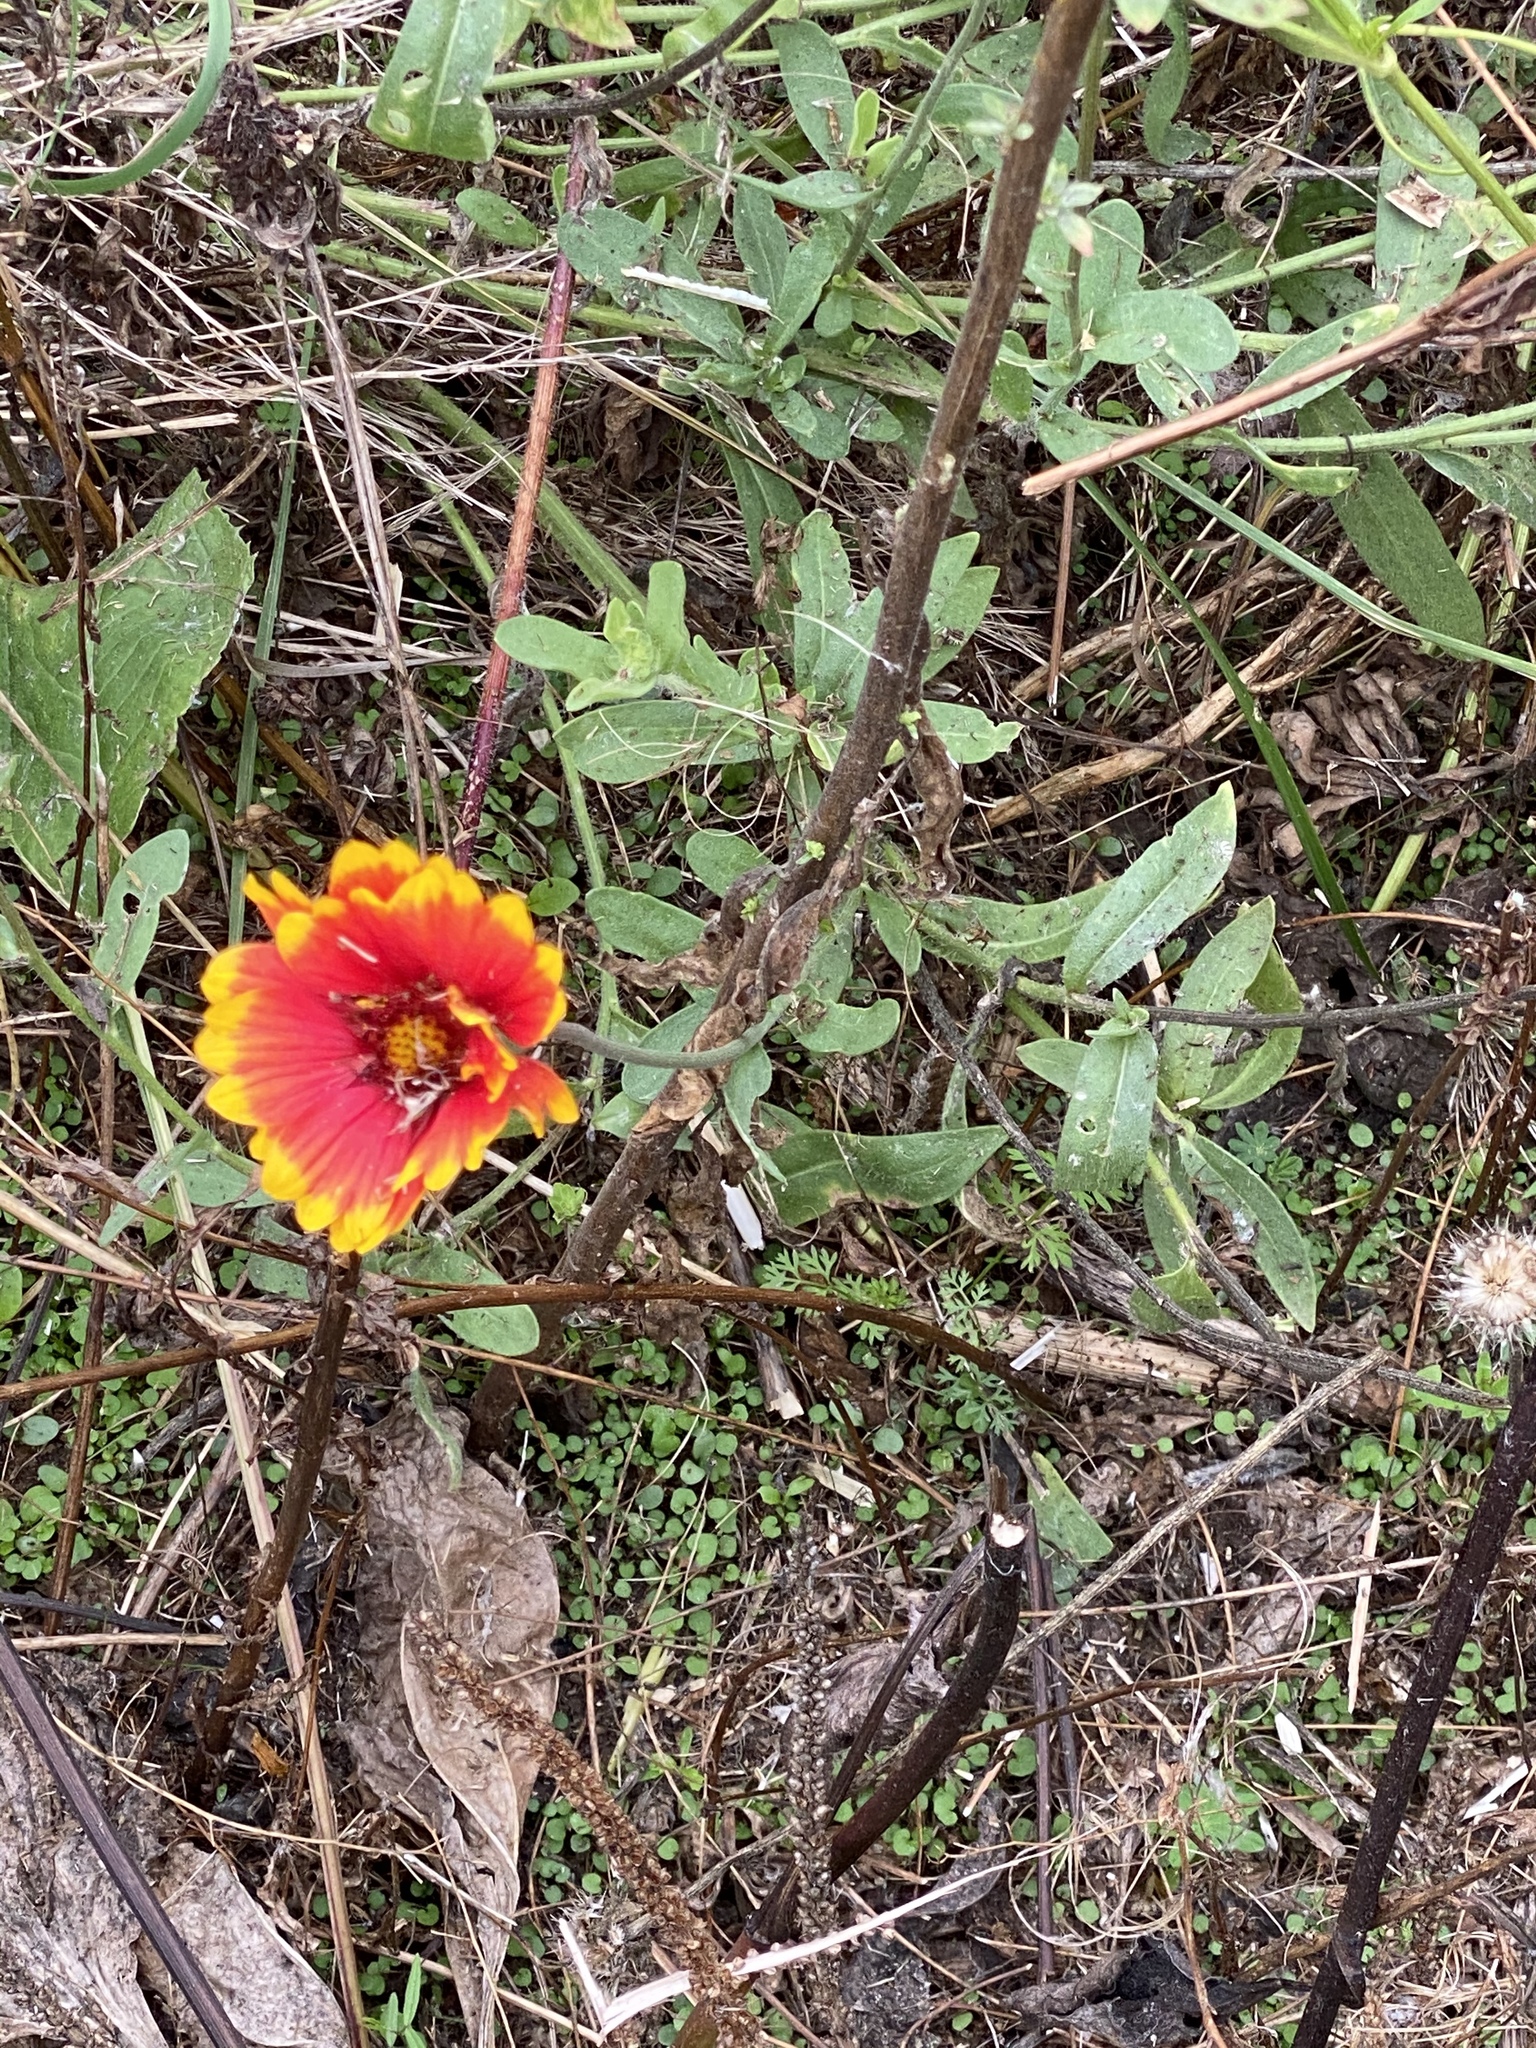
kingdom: Plantae
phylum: Tracheophyta
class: Magnoliopsida
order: Asterales
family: Asteraceae
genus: Gaillardia
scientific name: Gaillardia pulchella
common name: Firewheel
